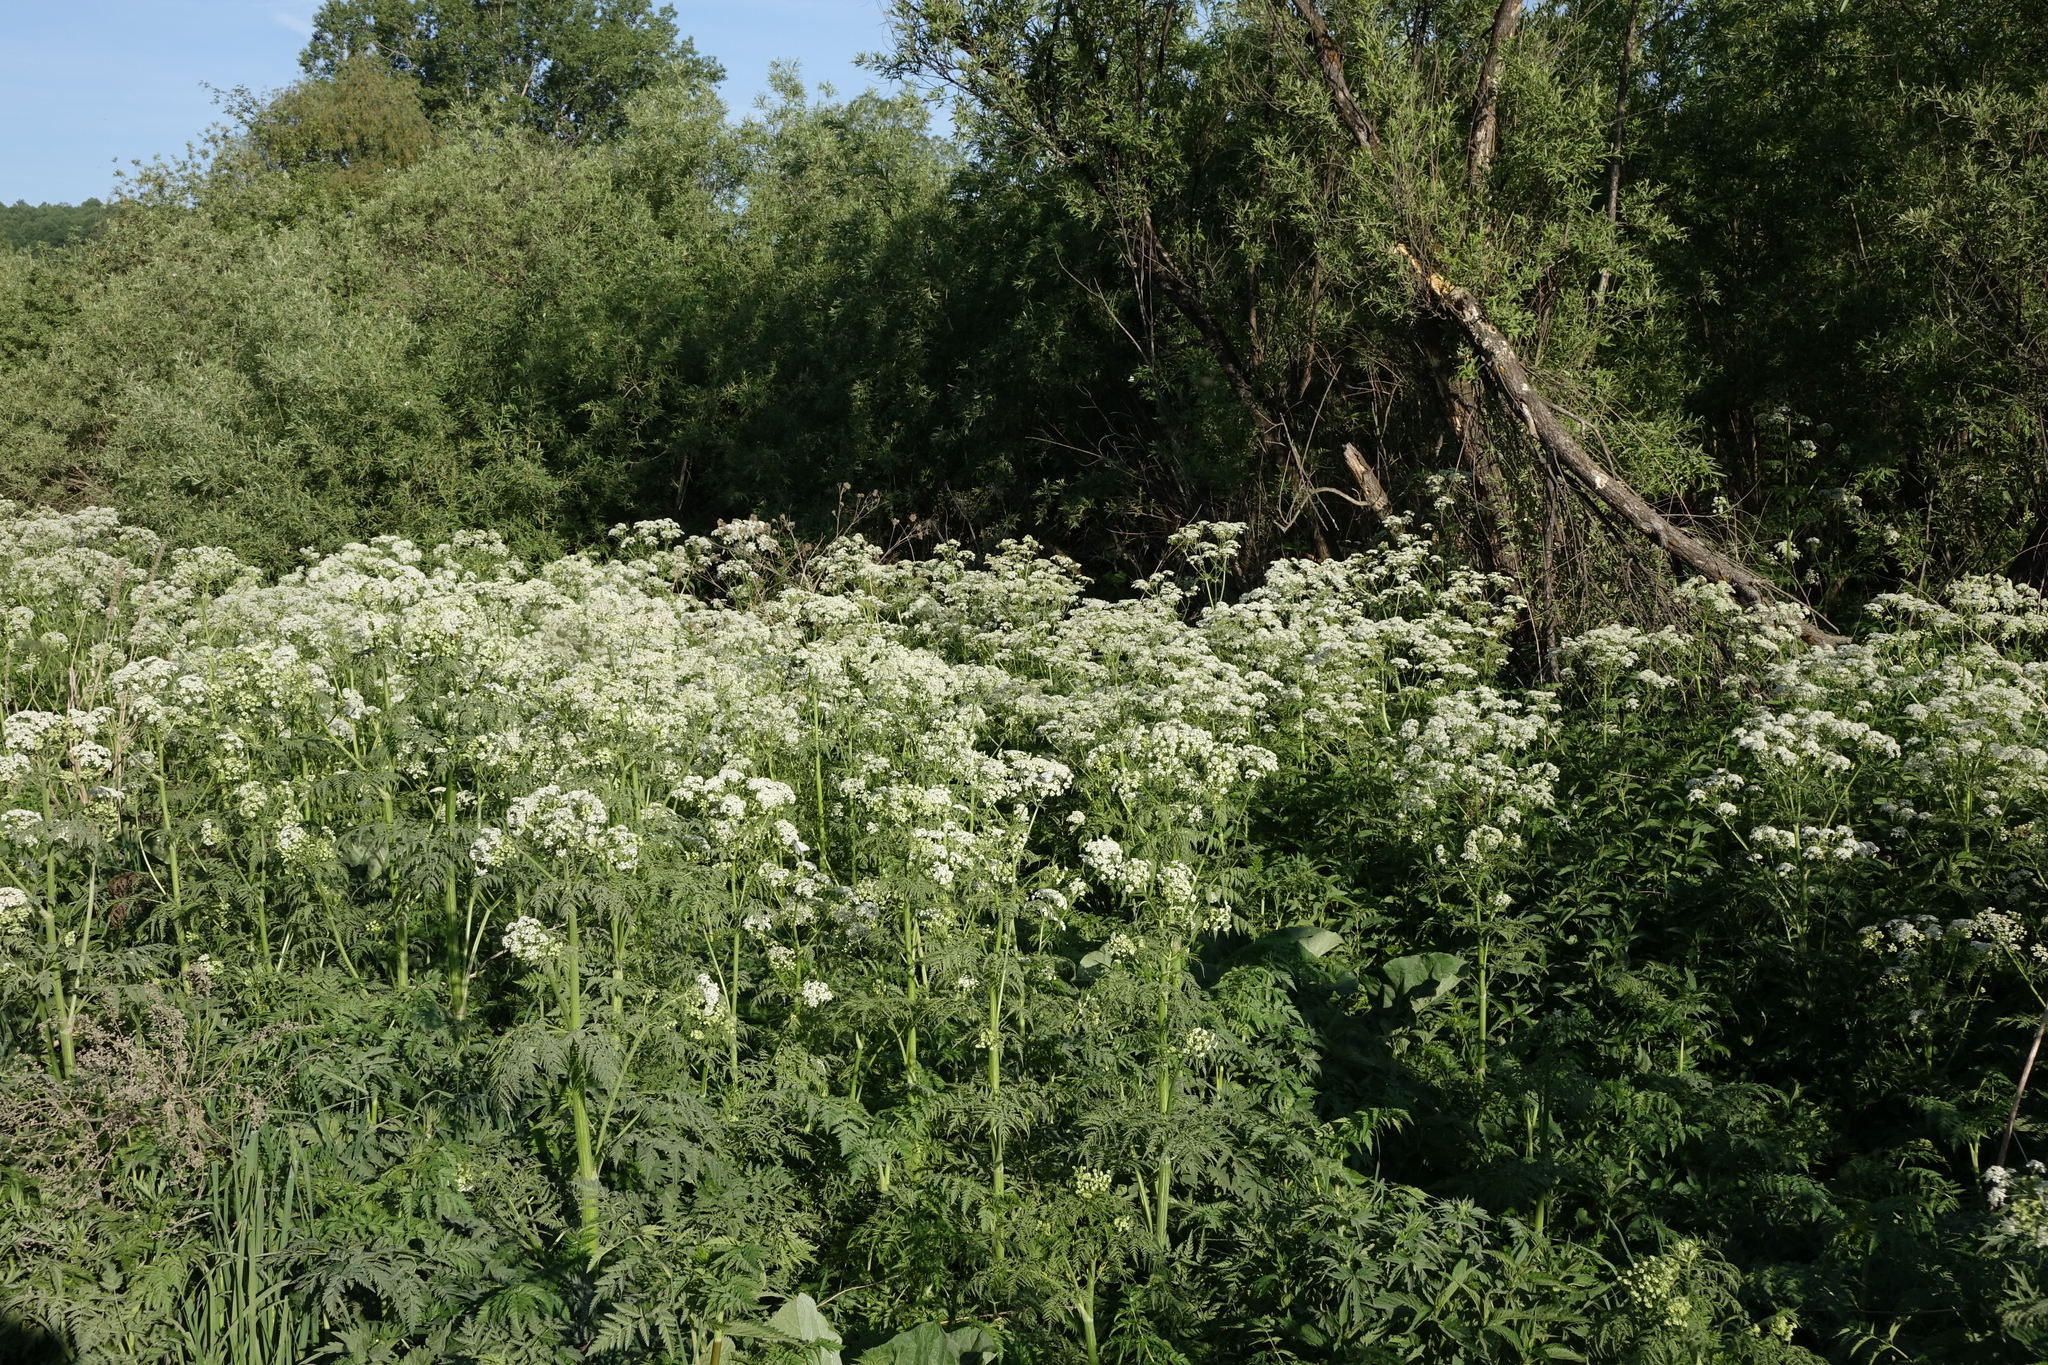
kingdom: Plantae
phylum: Tracheophyta
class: Magnoliopsida
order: Apiales
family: Apiaceae
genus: Anthriscus
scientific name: Anthriscus sylvestris
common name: Cow parsley
